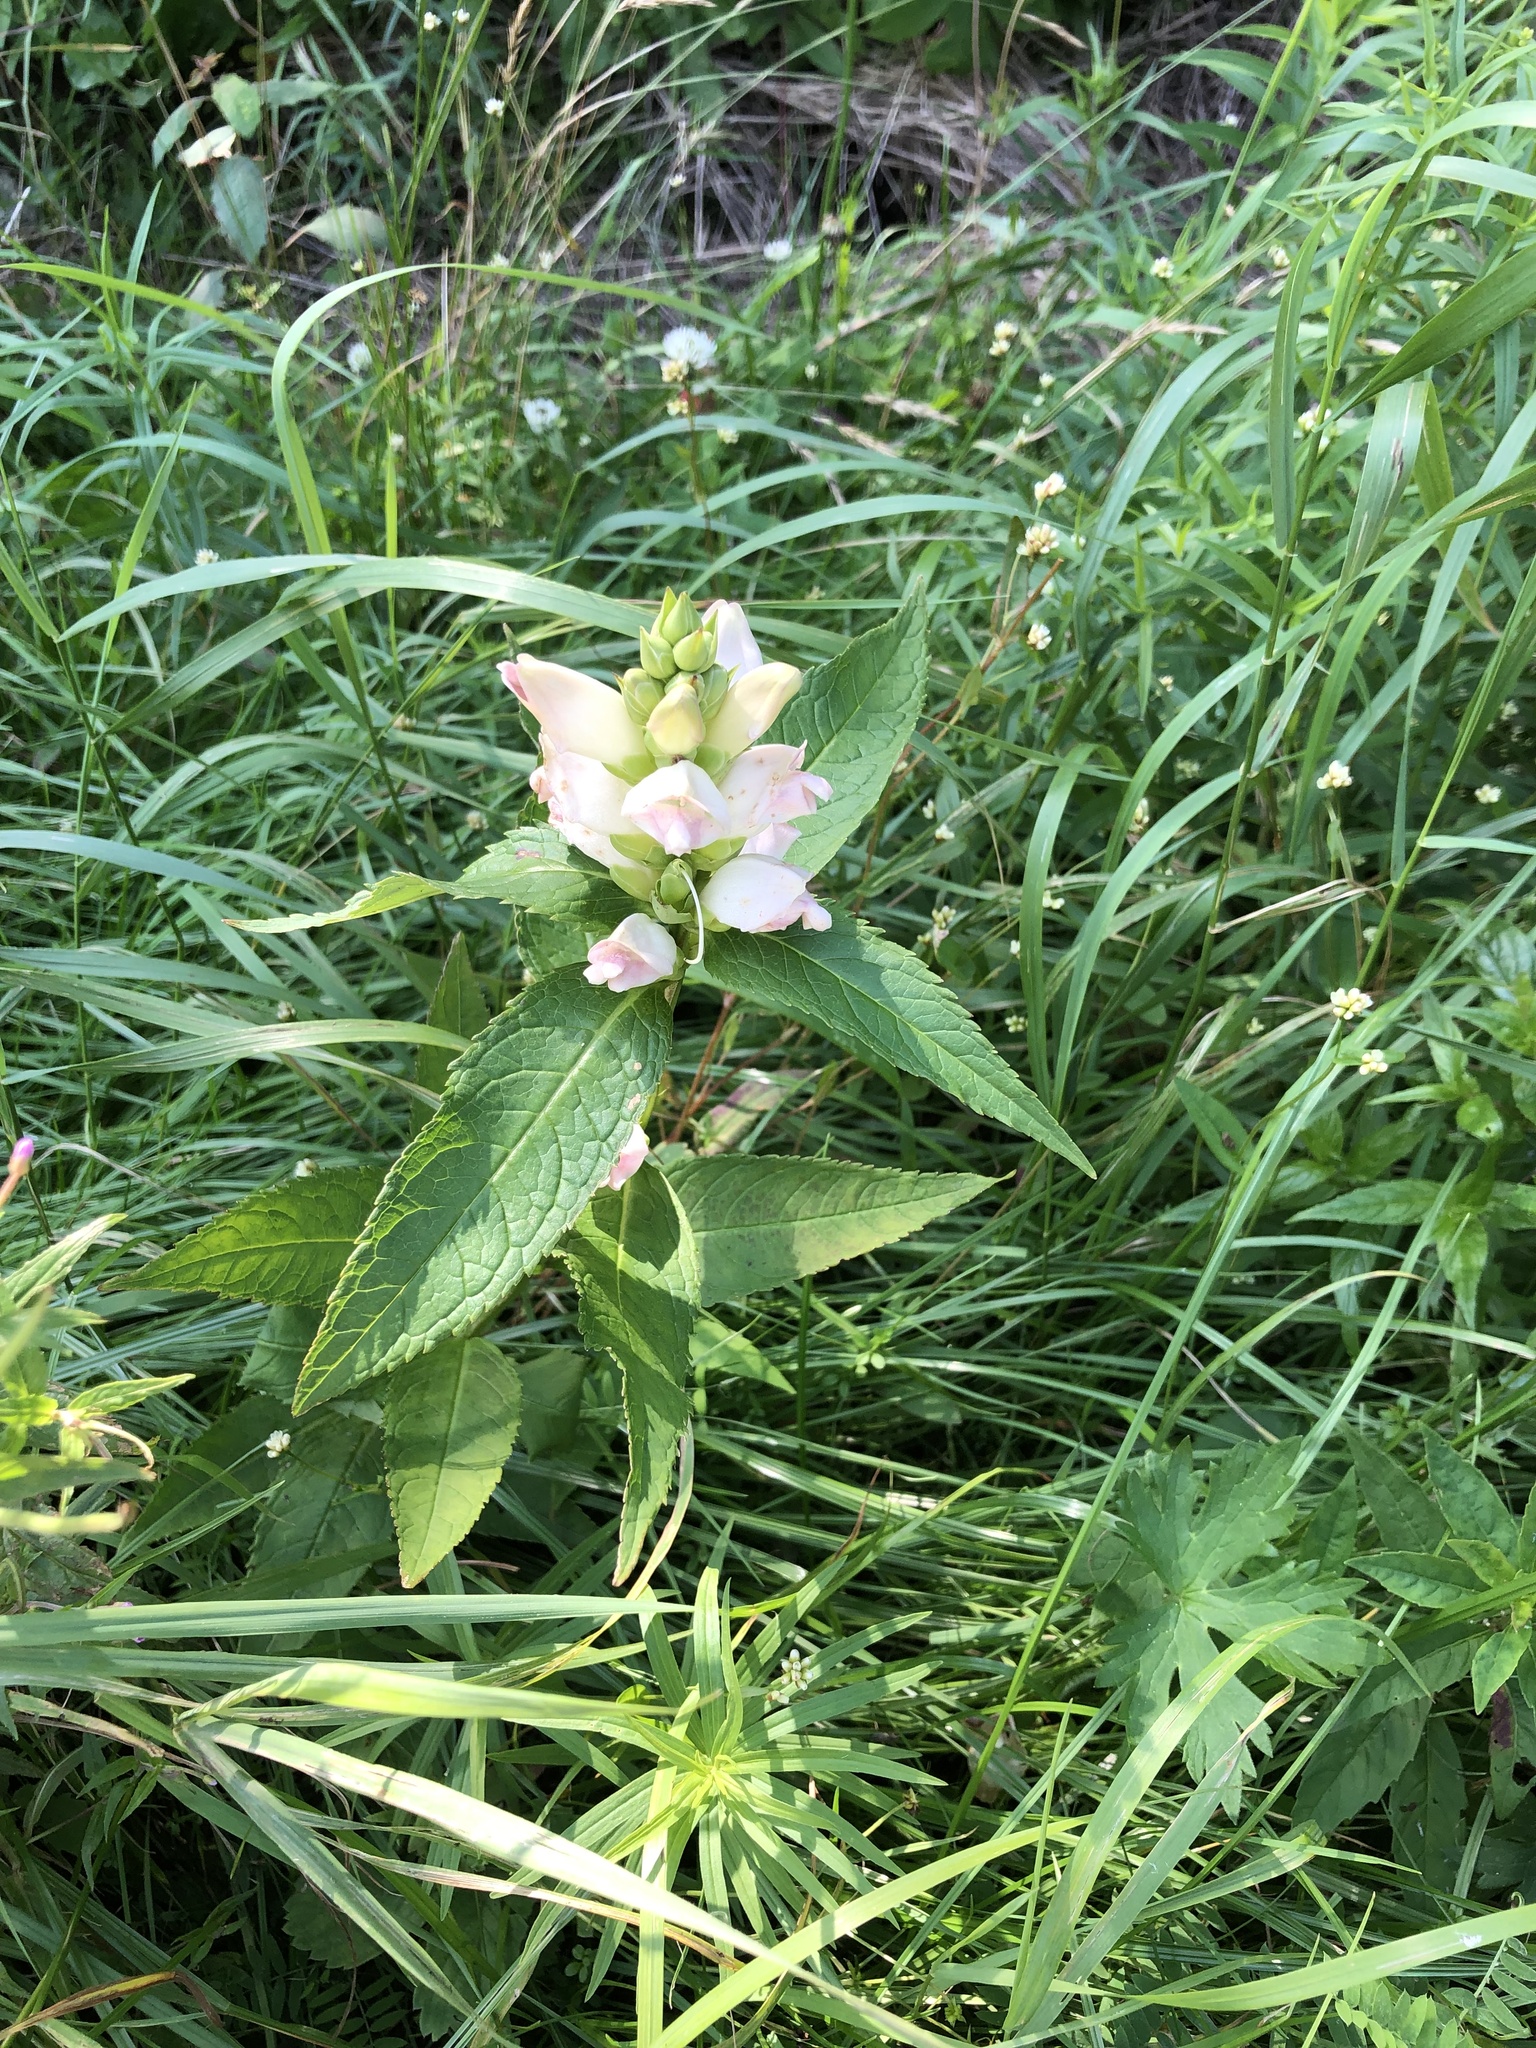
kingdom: Plantae
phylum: Tracheophyta
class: Magnoliopsida
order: Lamiales
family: Plantaginaceae
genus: Chelone
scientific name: Chelone glabra
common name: Snakehead
